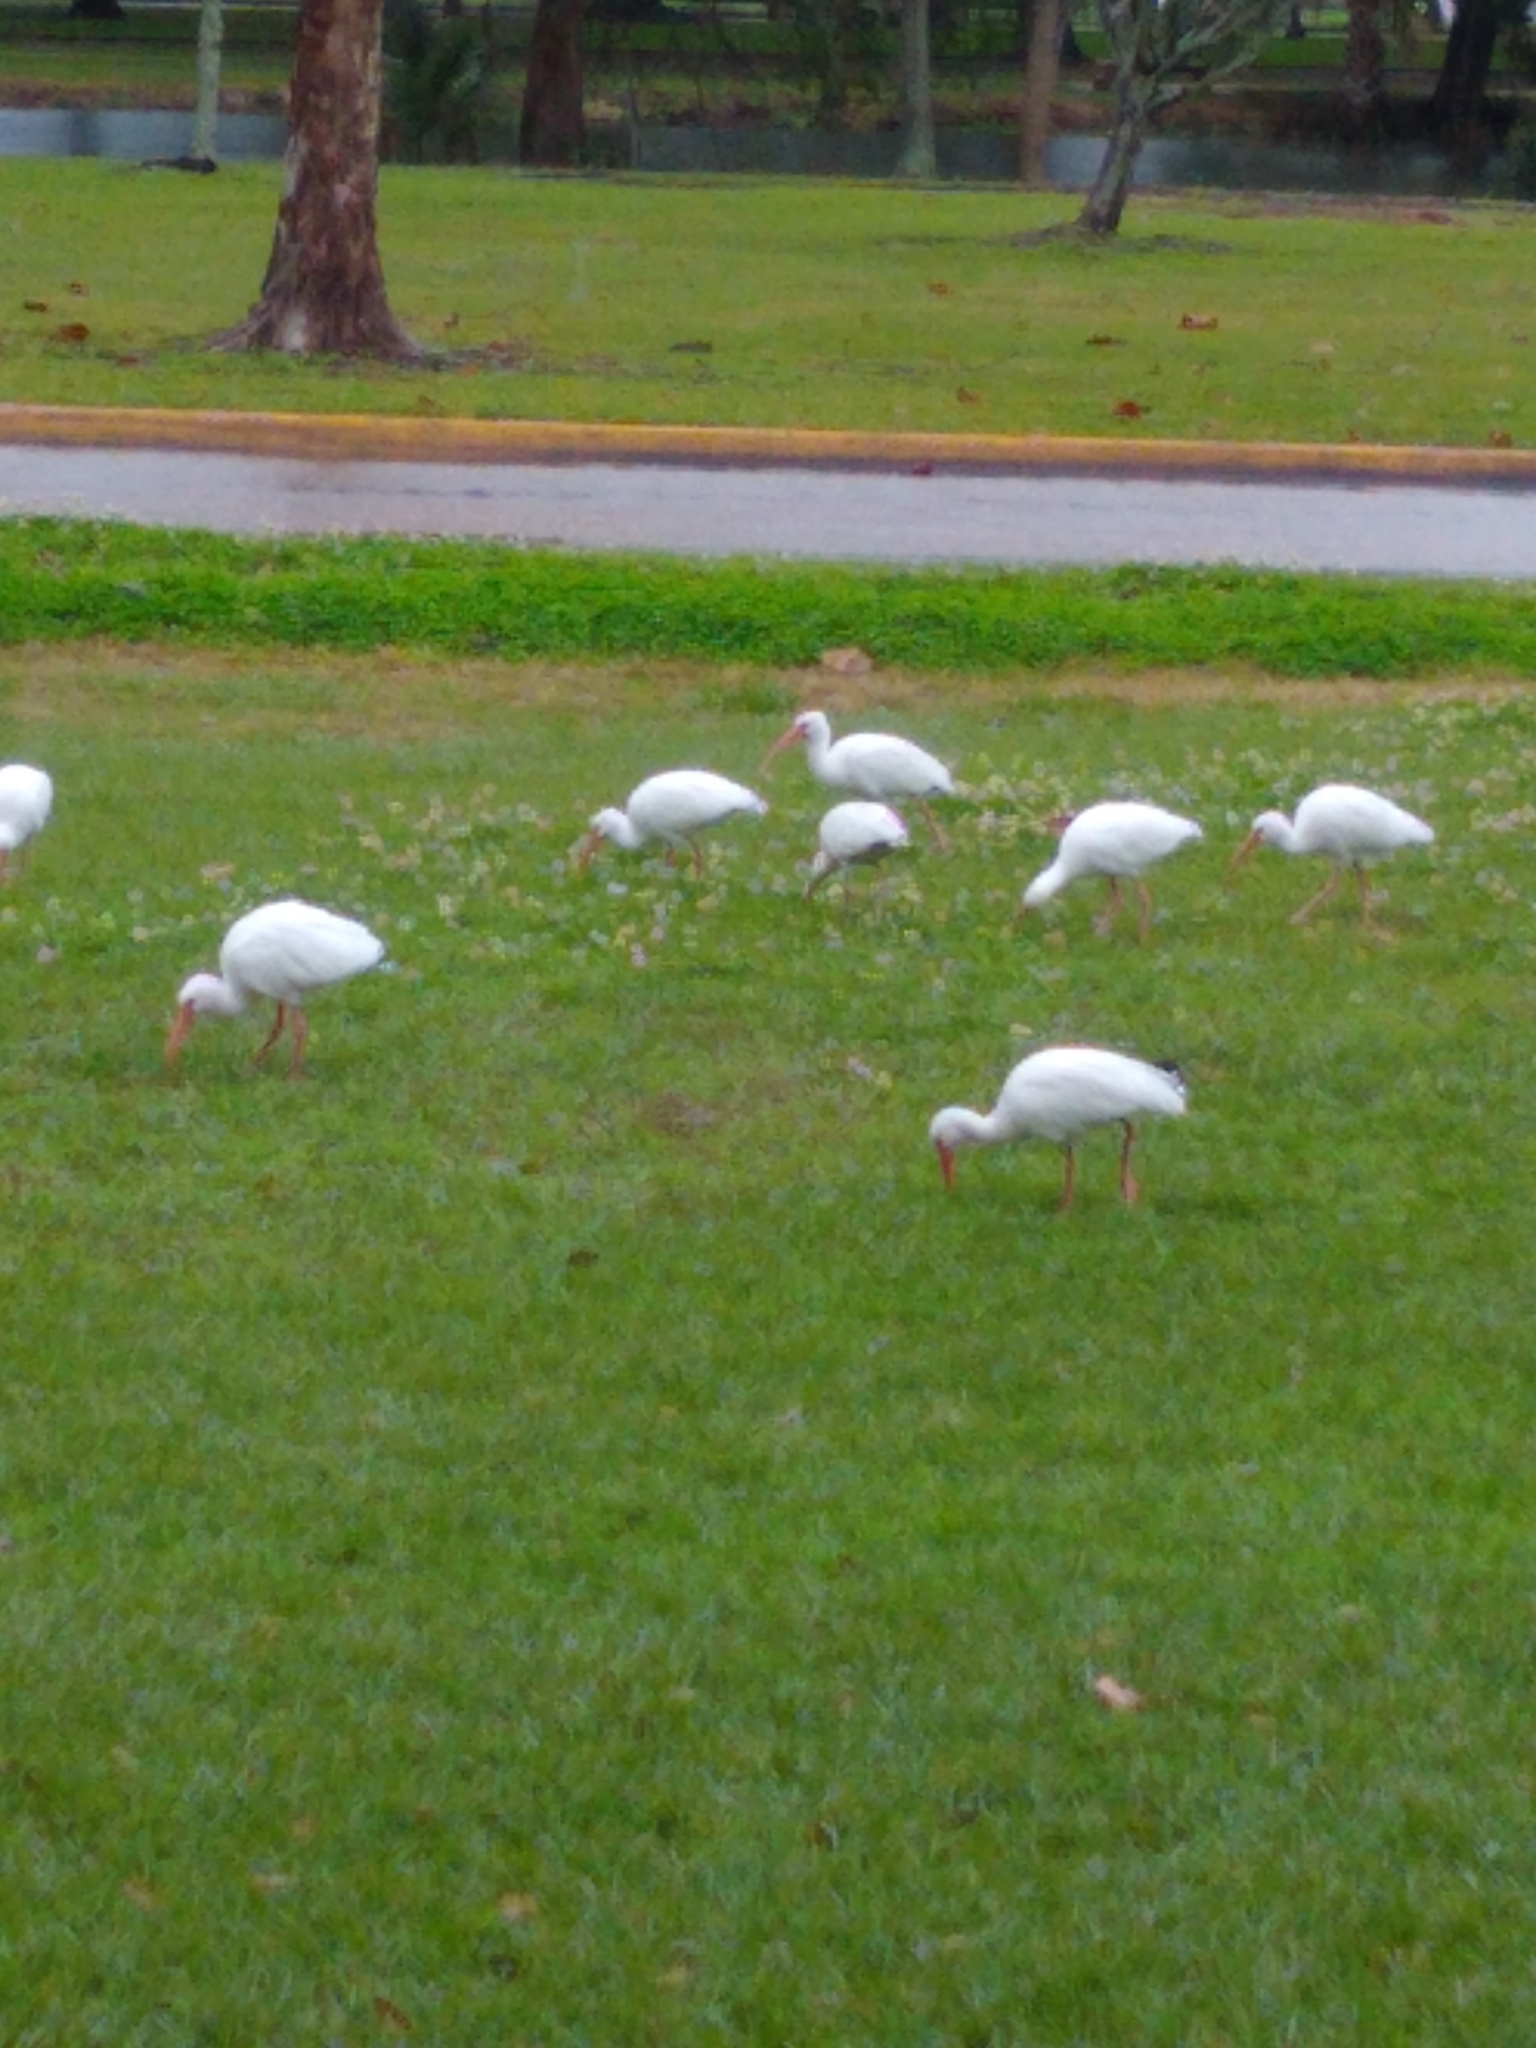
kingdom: Animalia
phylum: Chordata
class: Aves
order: Pelecaniformes
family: Threskiornithidae
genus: Eudocimus
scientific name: Eudocimus albus
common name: White ibis
